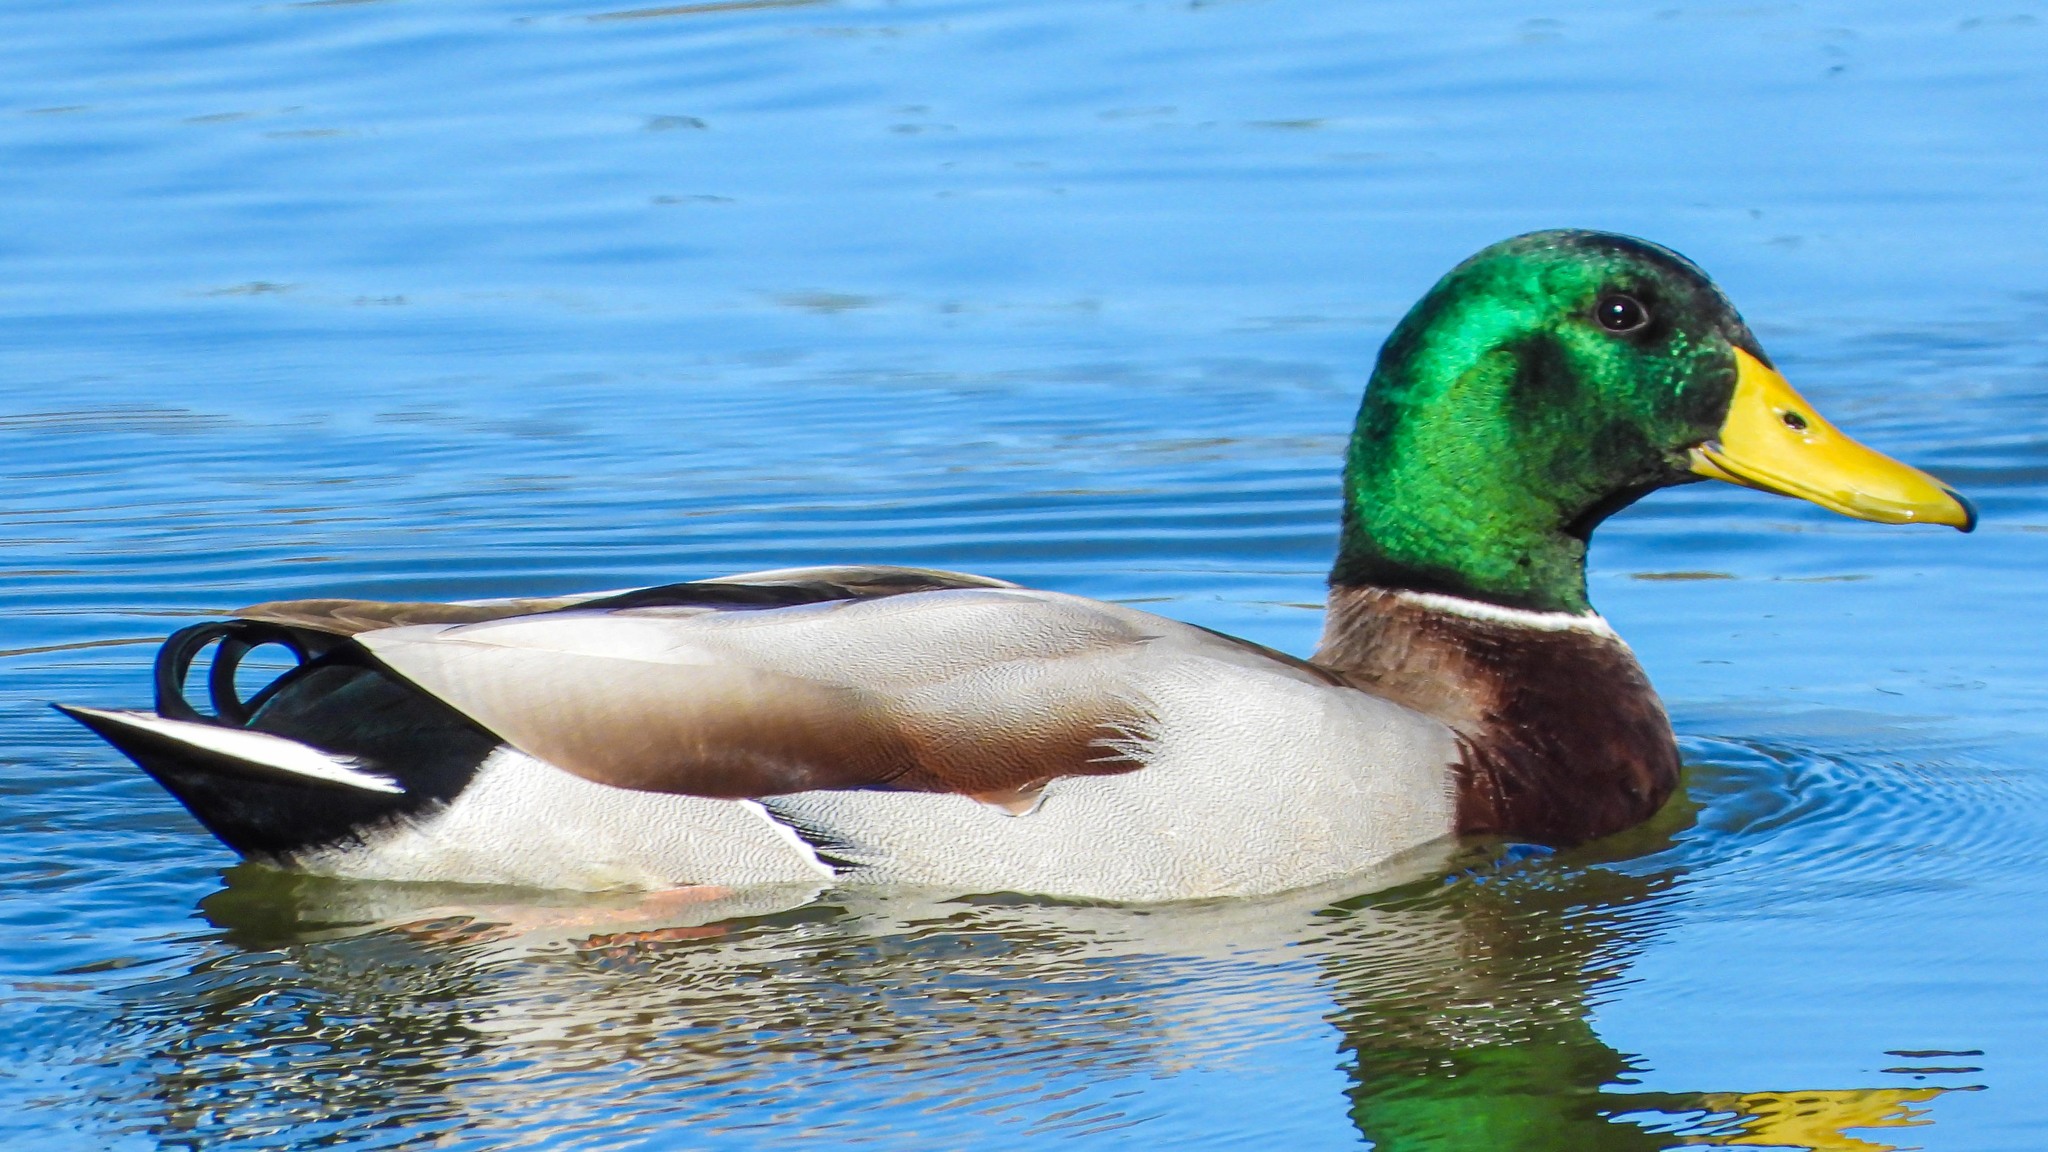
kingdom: Animalia
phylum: Chordata
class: Aves
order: Anseriformes
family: Anatidae
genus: Anas
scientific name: Anas platyrhynchos
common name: Mallard
